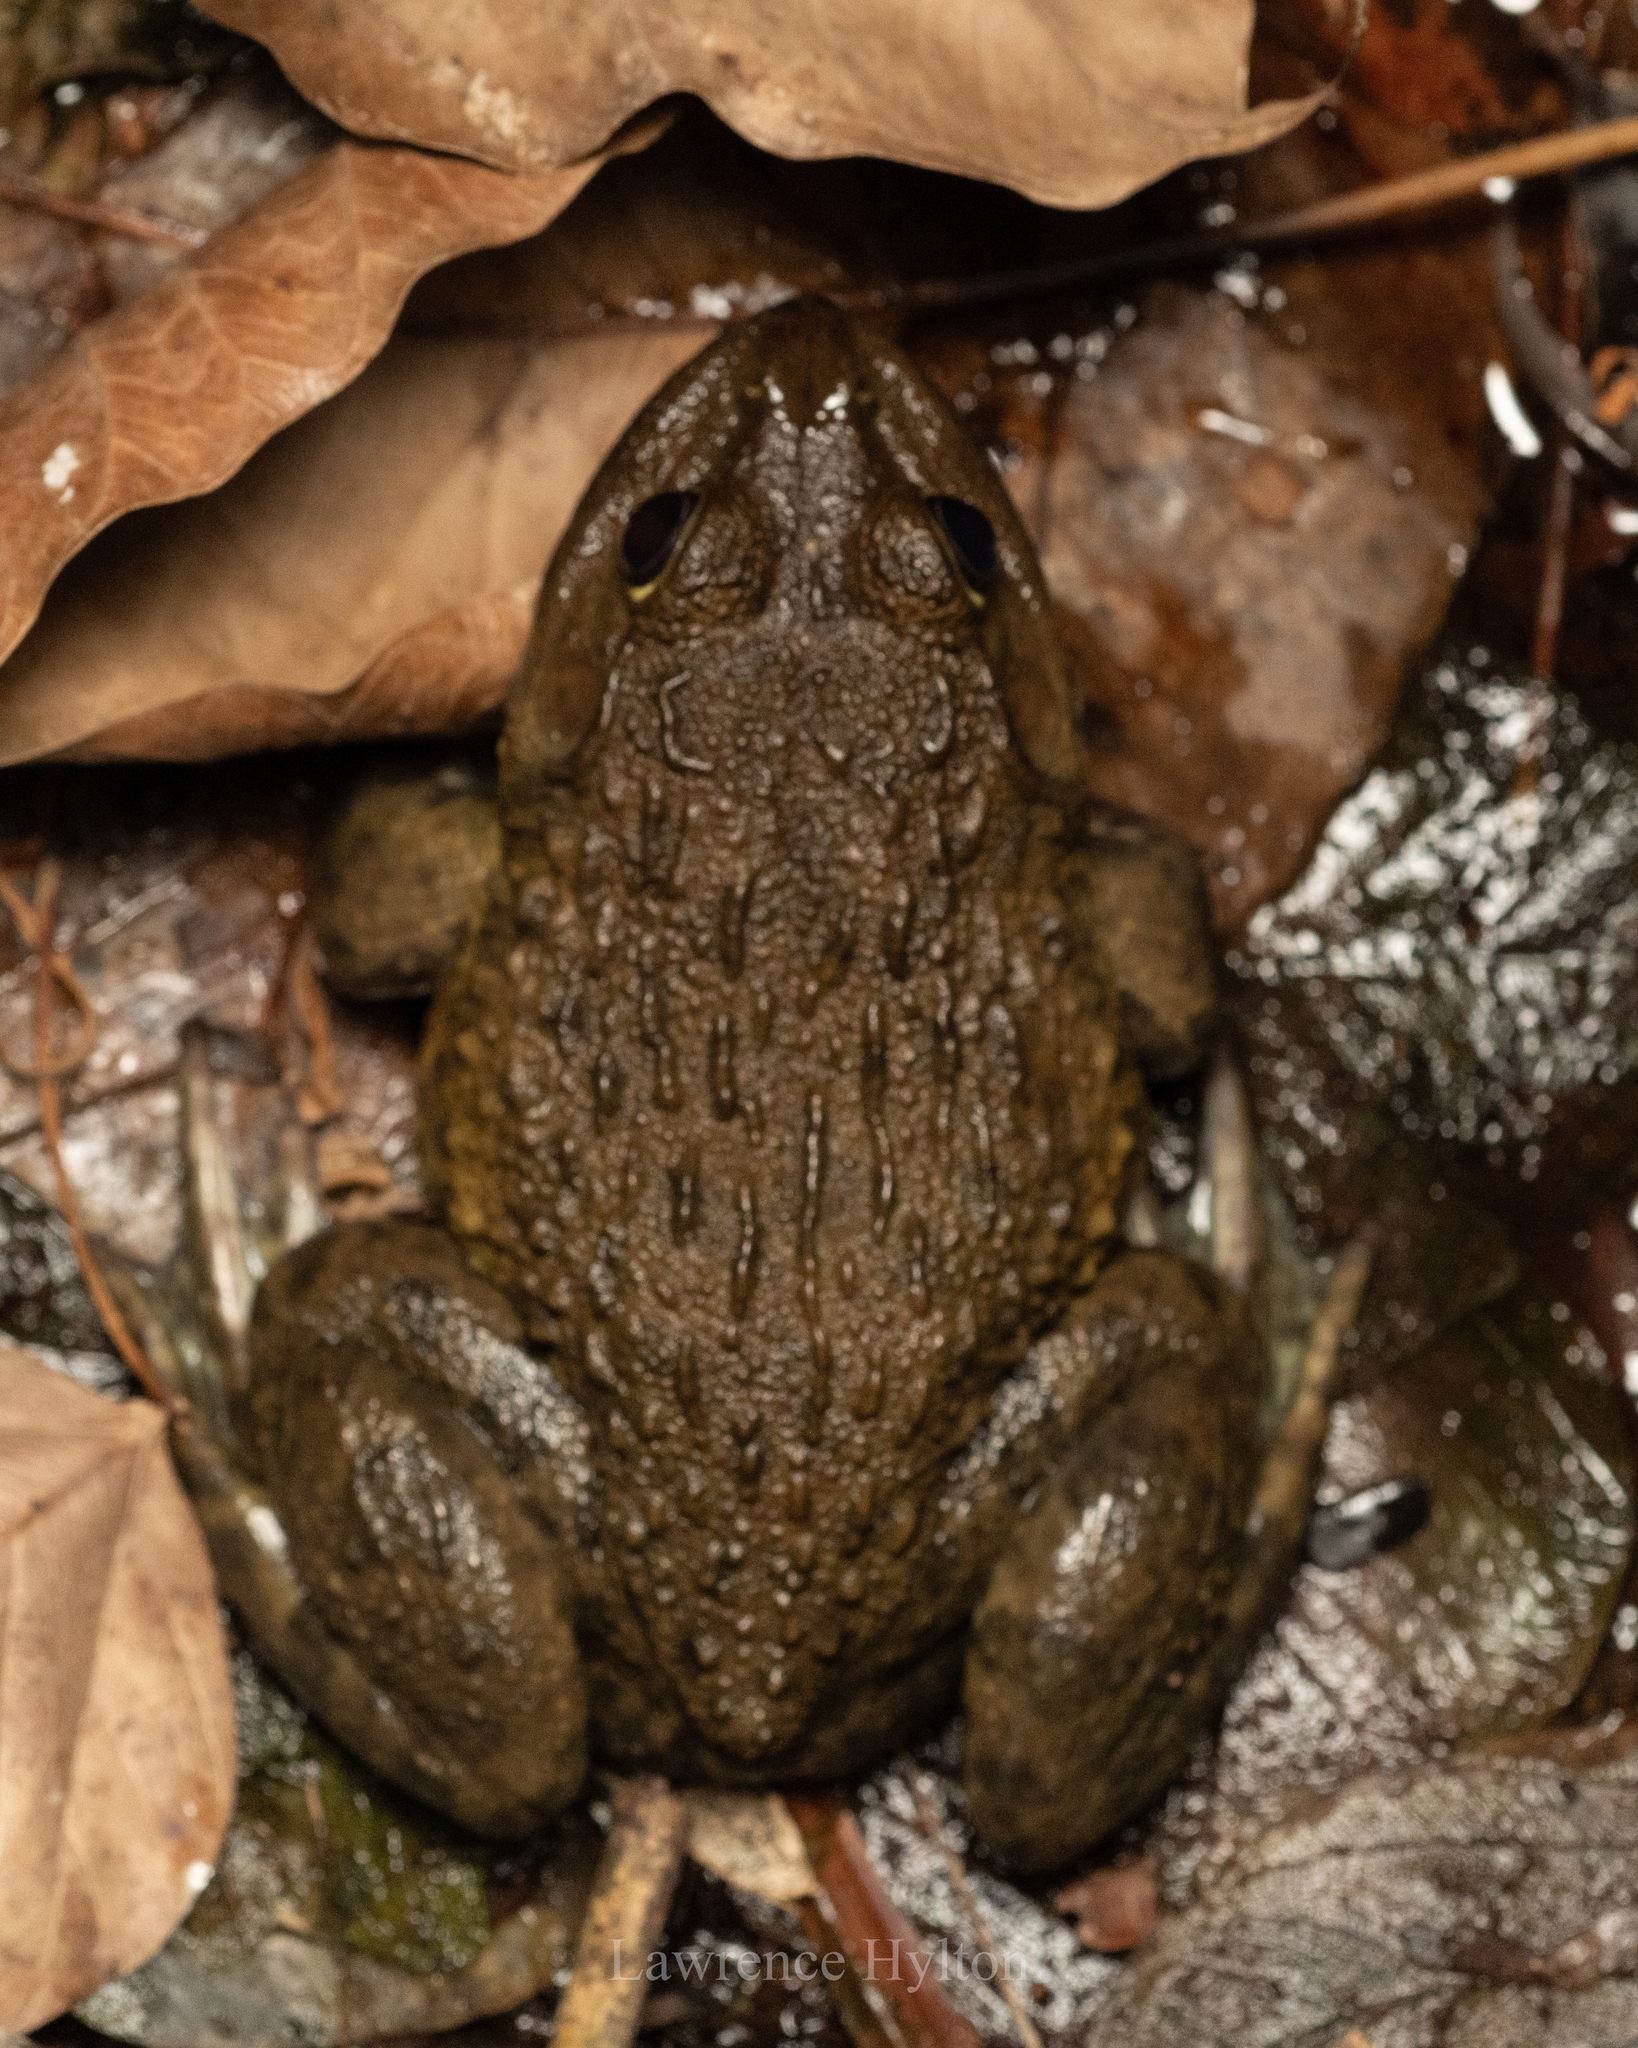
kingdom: Animalia
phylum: Chordata
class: Amphibia
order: Anura
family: Dicroglossidae
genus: Hoplobatrachus
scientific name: Hoplobatrachus rugulosus
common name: Chinese edible frog
